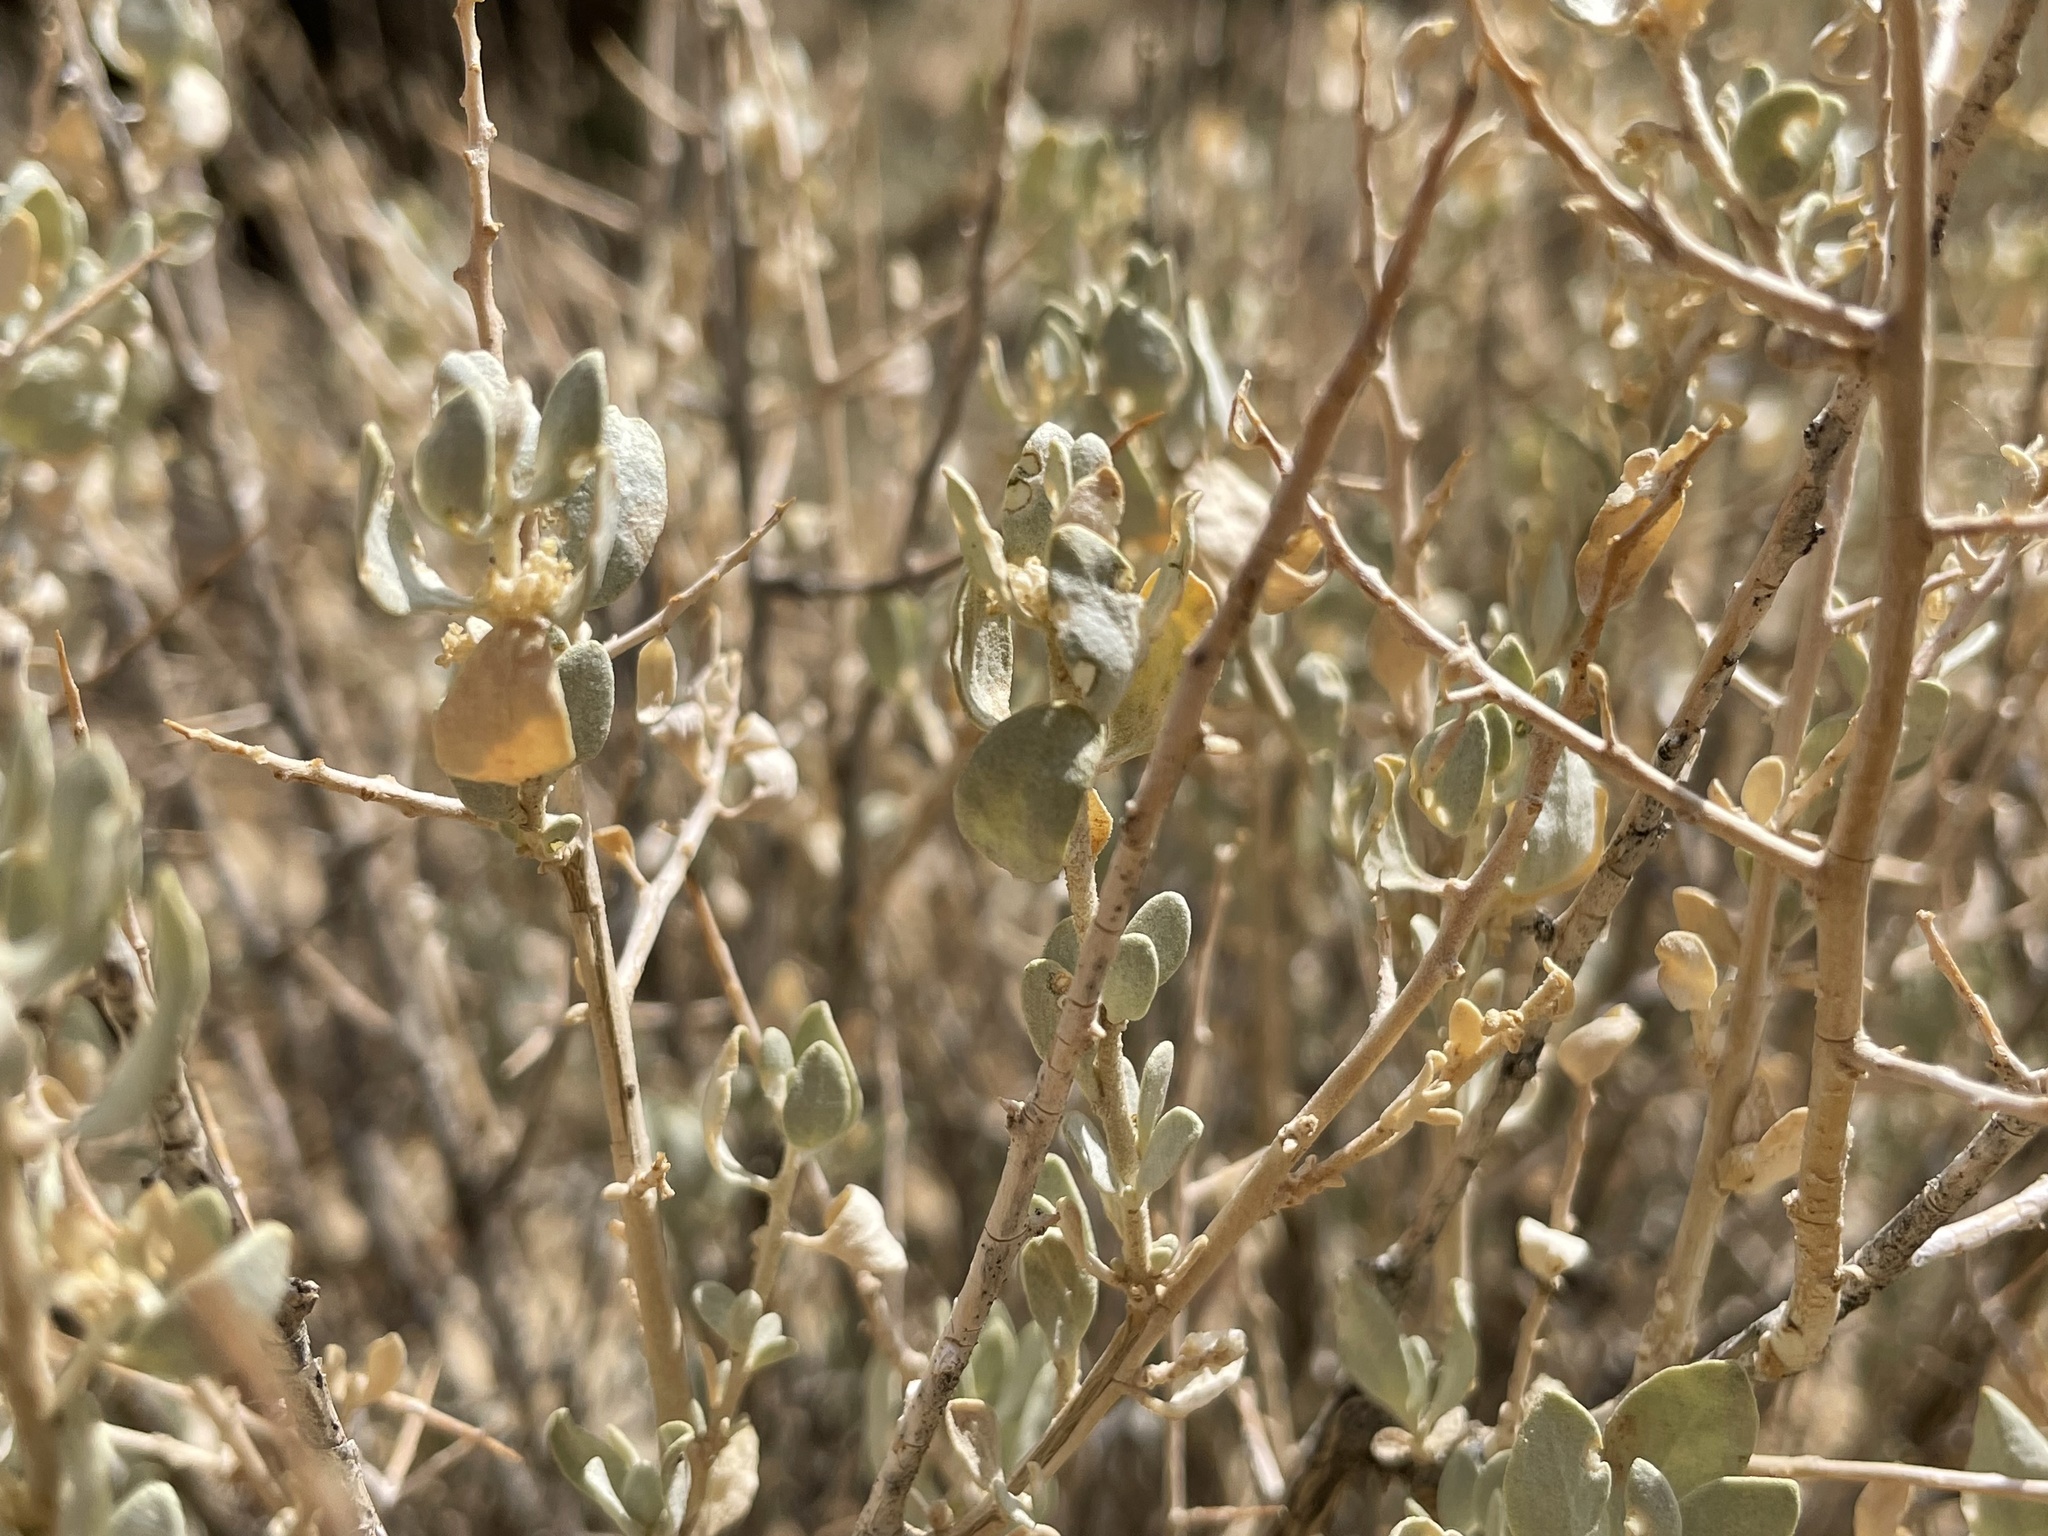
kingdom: Plantae
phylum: Tracheophyta
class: Magnoliopsida
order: Caryophyllales
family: Amaranthaceae
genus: Atriplex
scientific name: Atriplex confertifolia
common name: Shadscale
